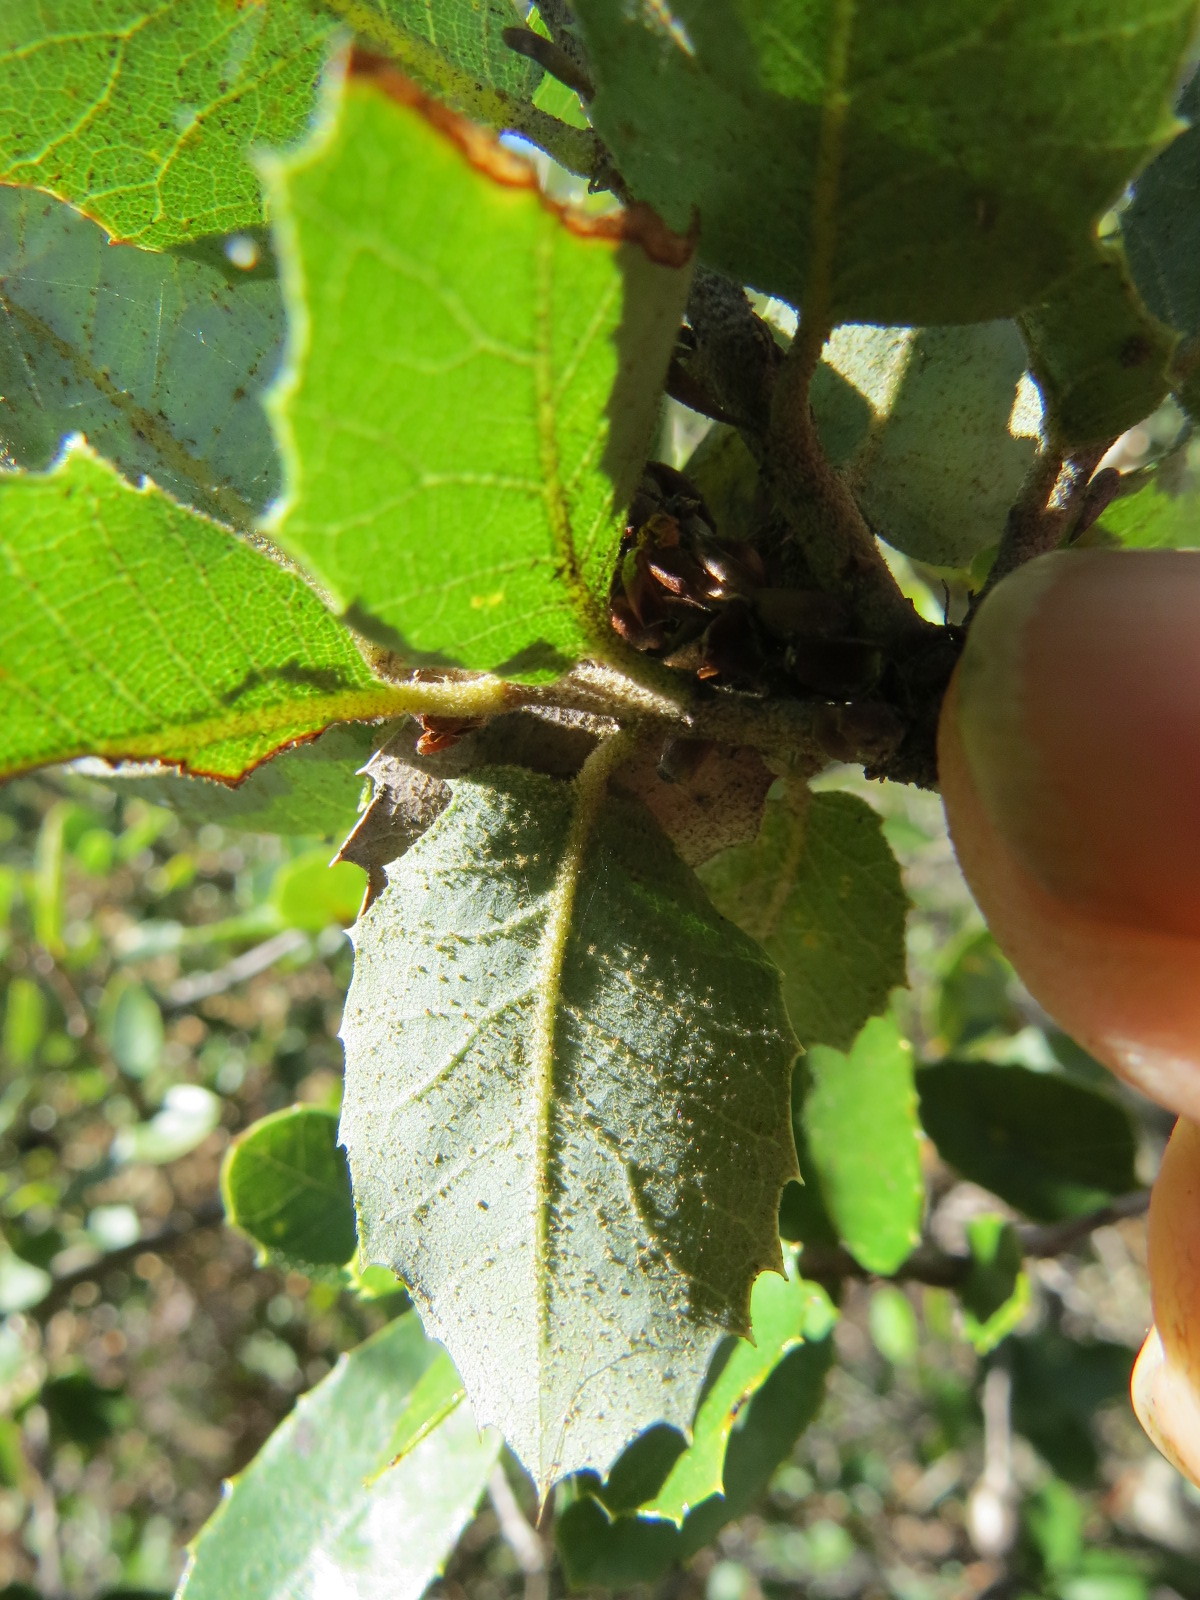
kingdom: Animalia
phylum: Arthropoda
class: Insecta
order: Hymenoptera
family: Cynipidae
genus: Heteroecus
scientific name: Heteroecus pacificus
